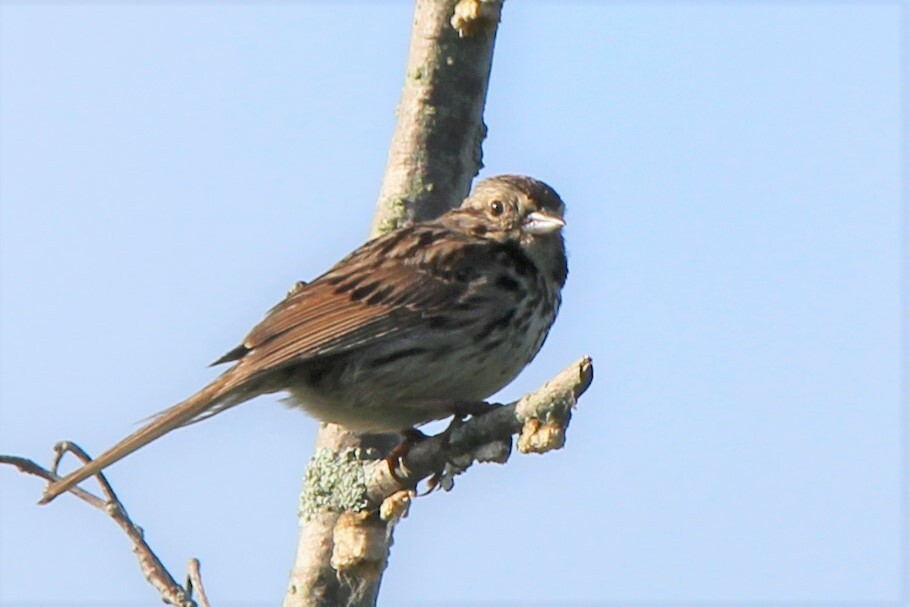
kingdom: Animalia
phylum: Chordata
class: Aves
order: Passeriformes
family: Passerellidae
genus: Melospiza
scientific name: Melospiza melodia
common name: Song sparrow
